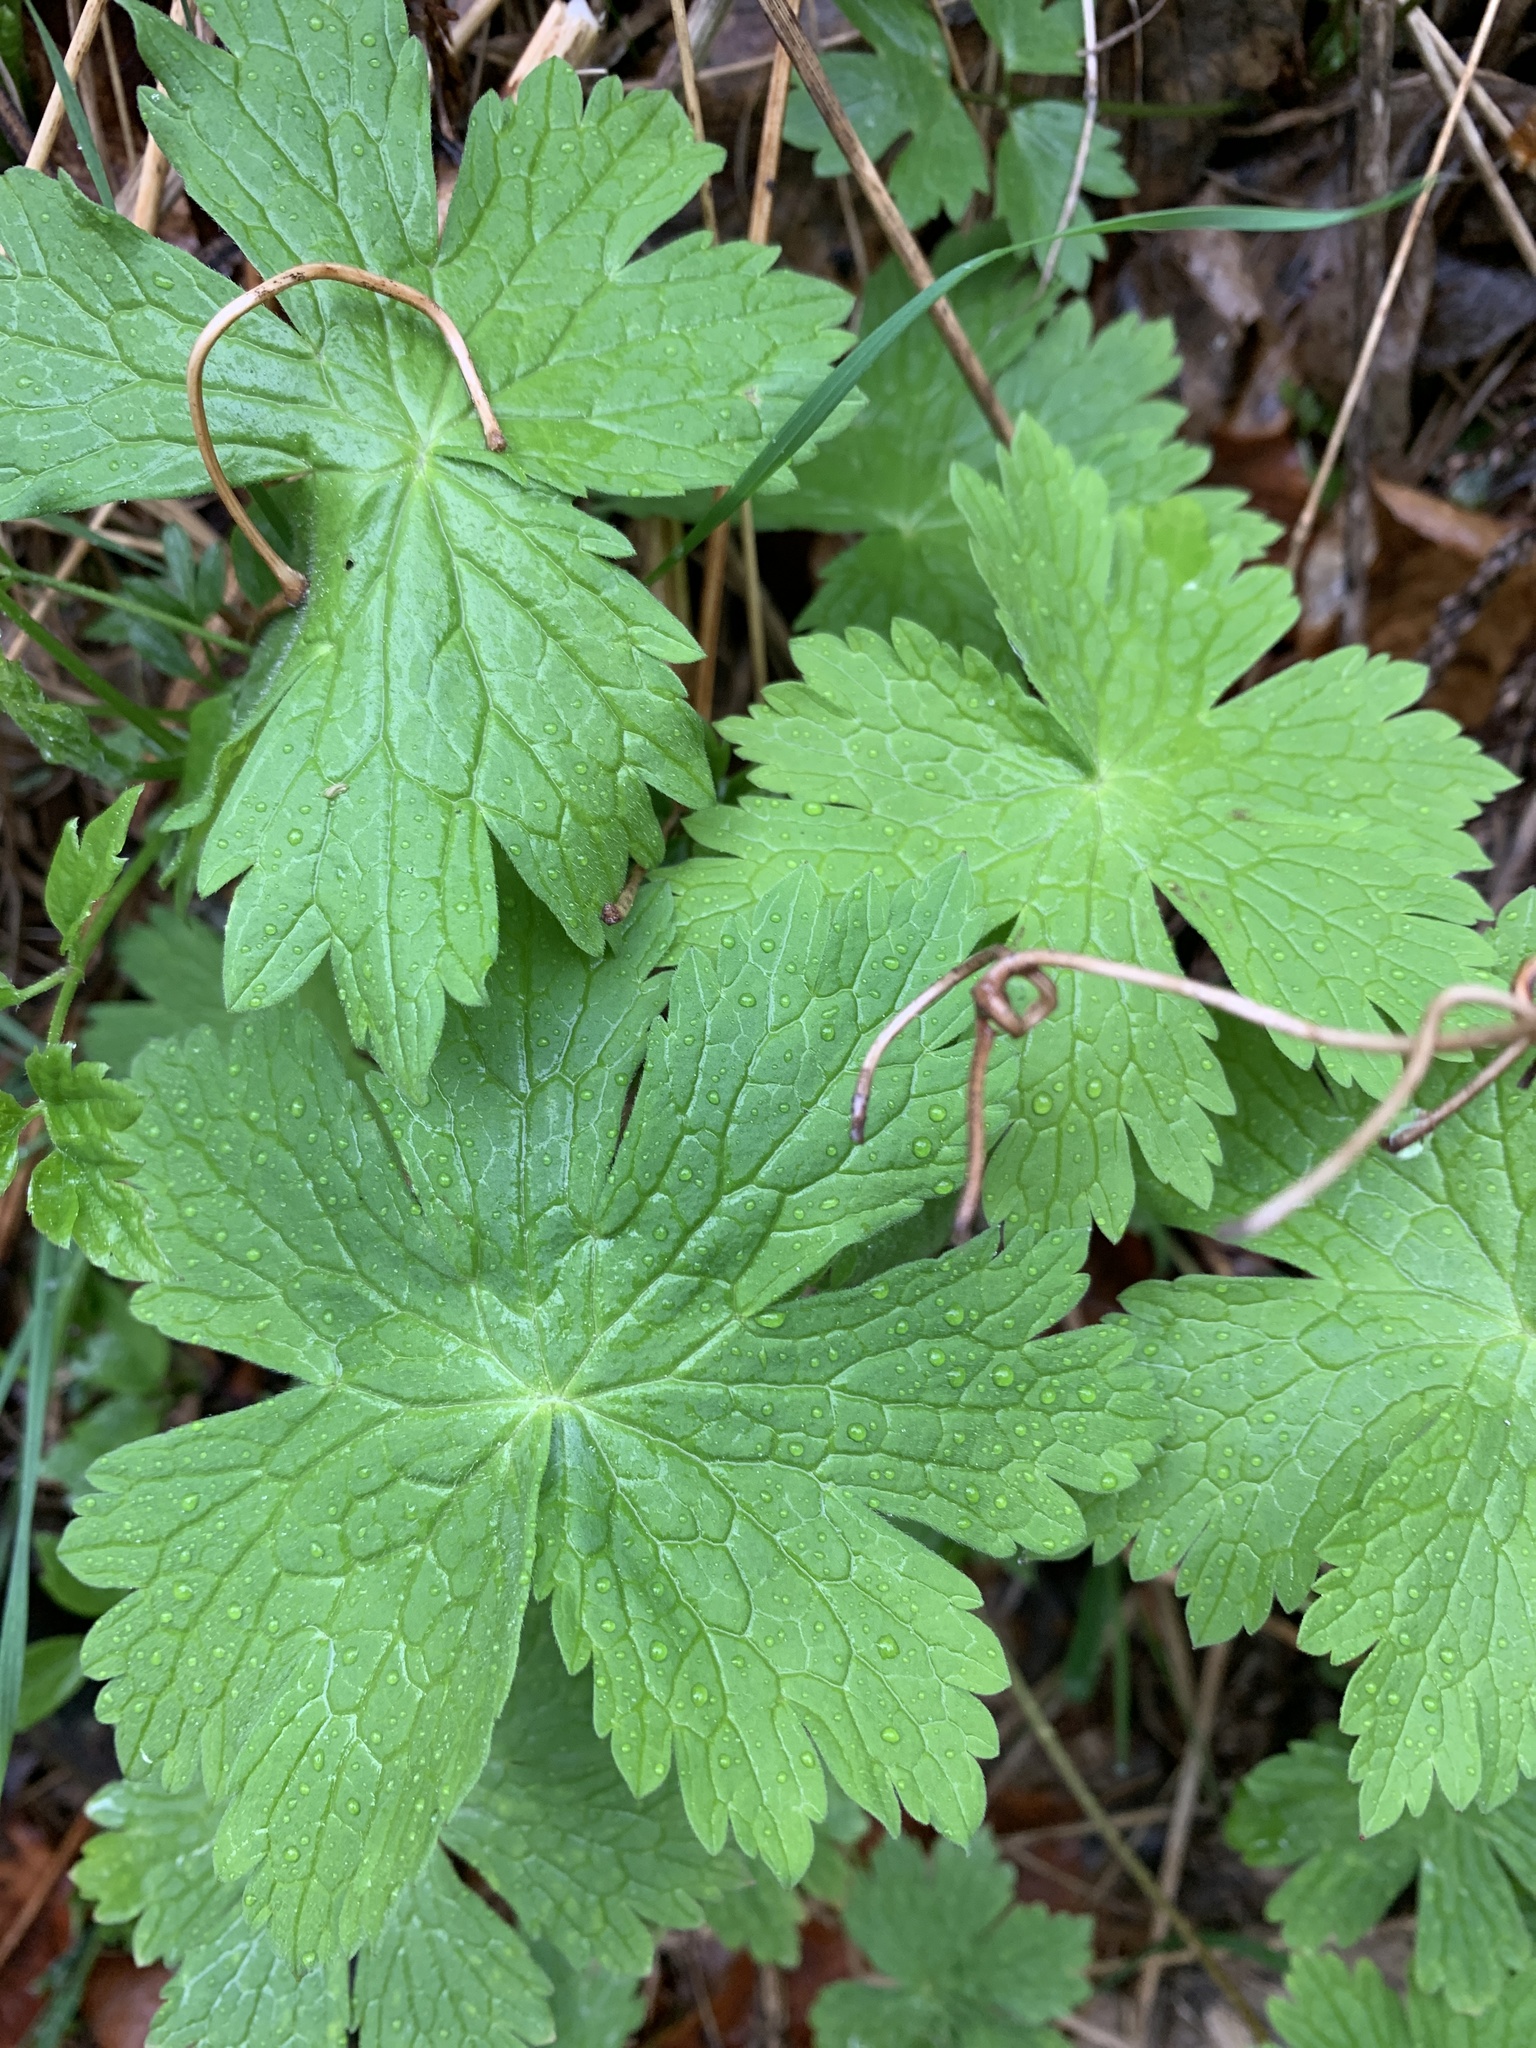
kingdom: Plantae
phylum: Tracheophyta
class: Magnoliopsida
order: Geraniales
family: Geraniaceae
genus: Geranium
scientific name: Geranium phaeum
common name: Dusky crane's-bill
